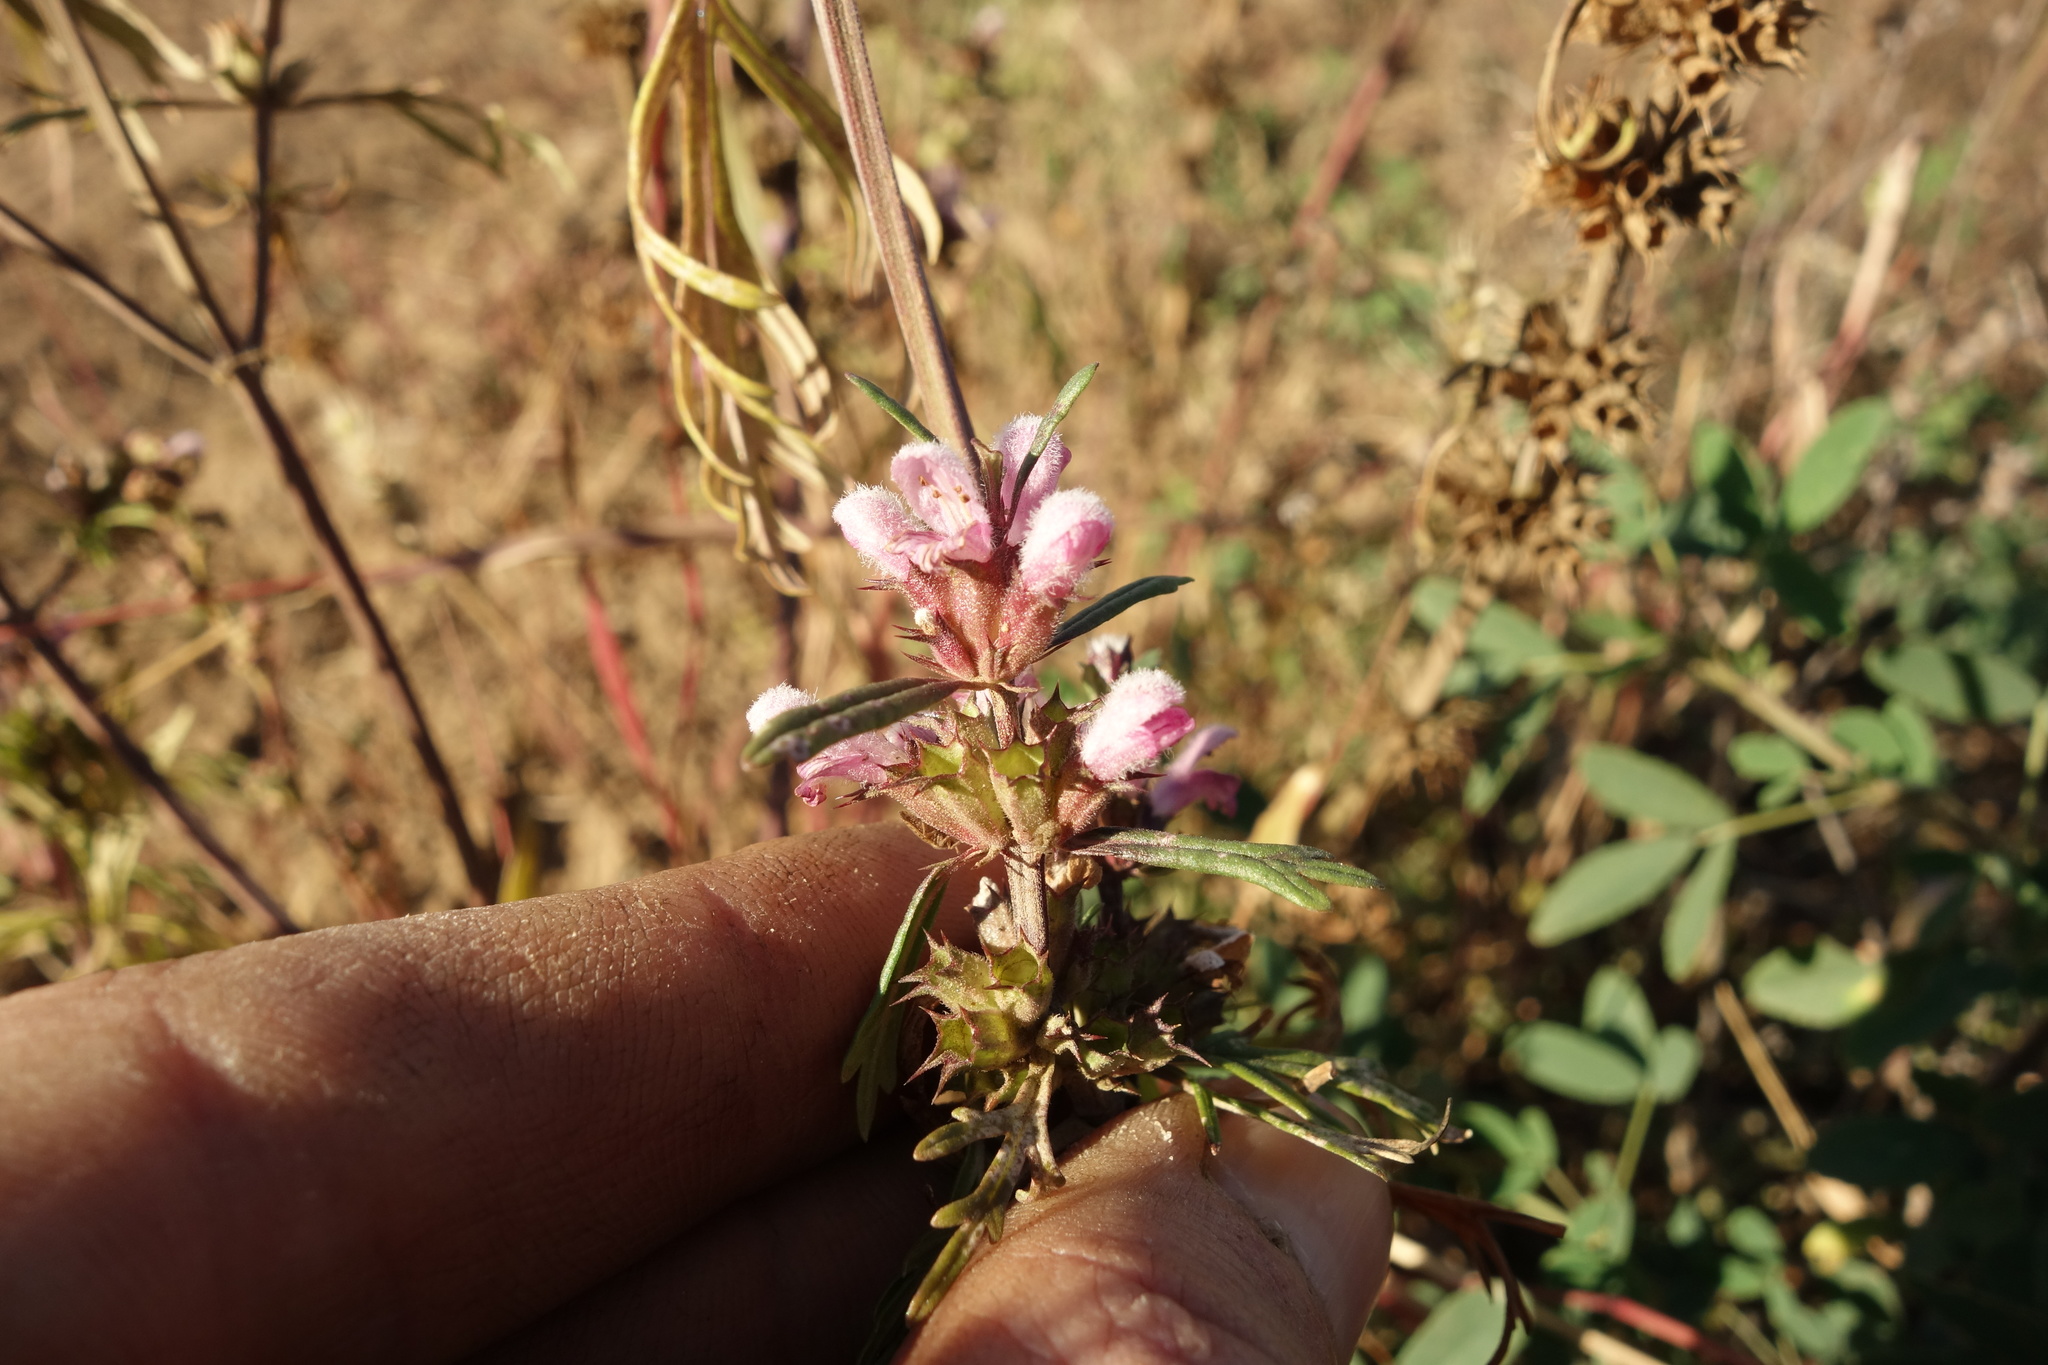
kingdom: Plantae
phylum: Tracheophyta
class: Magnoliopsida
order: Lamiales
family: Lamiaceae
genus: Leonurus
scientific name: Leonurus japonicus
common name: Honeyweed
